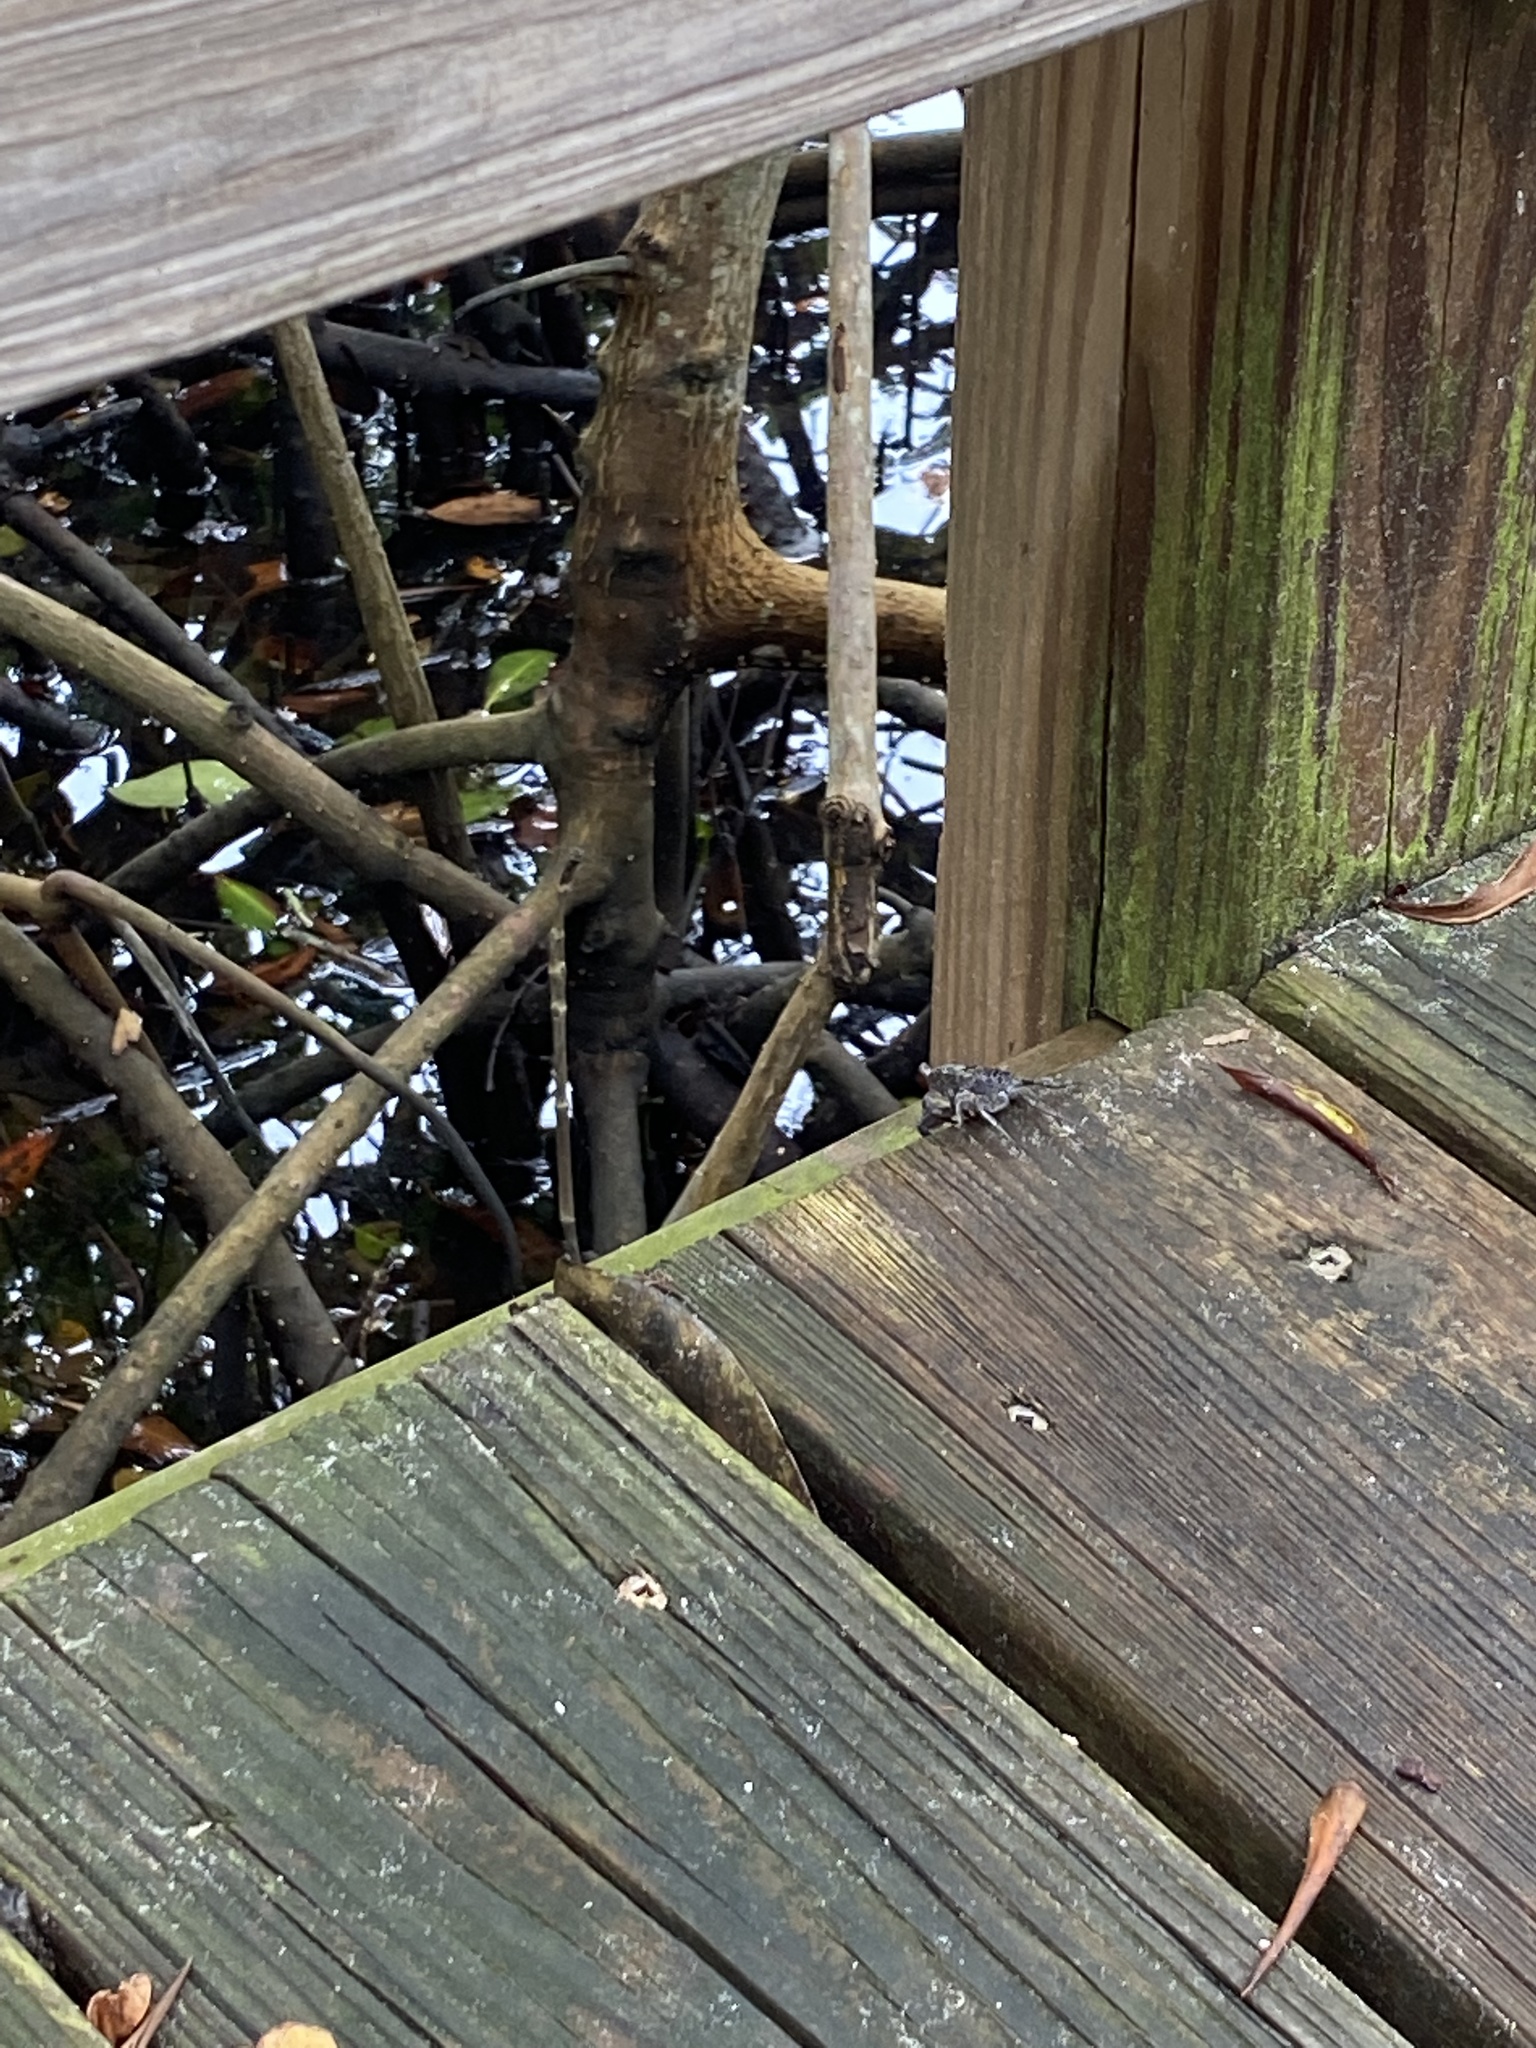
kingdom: Animalia
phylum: Arthropoda
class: Malacostraca
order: Decapoda
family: Sesarmidae
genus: Aratus
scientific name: Aratus pisonii
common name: Mangrove crab
